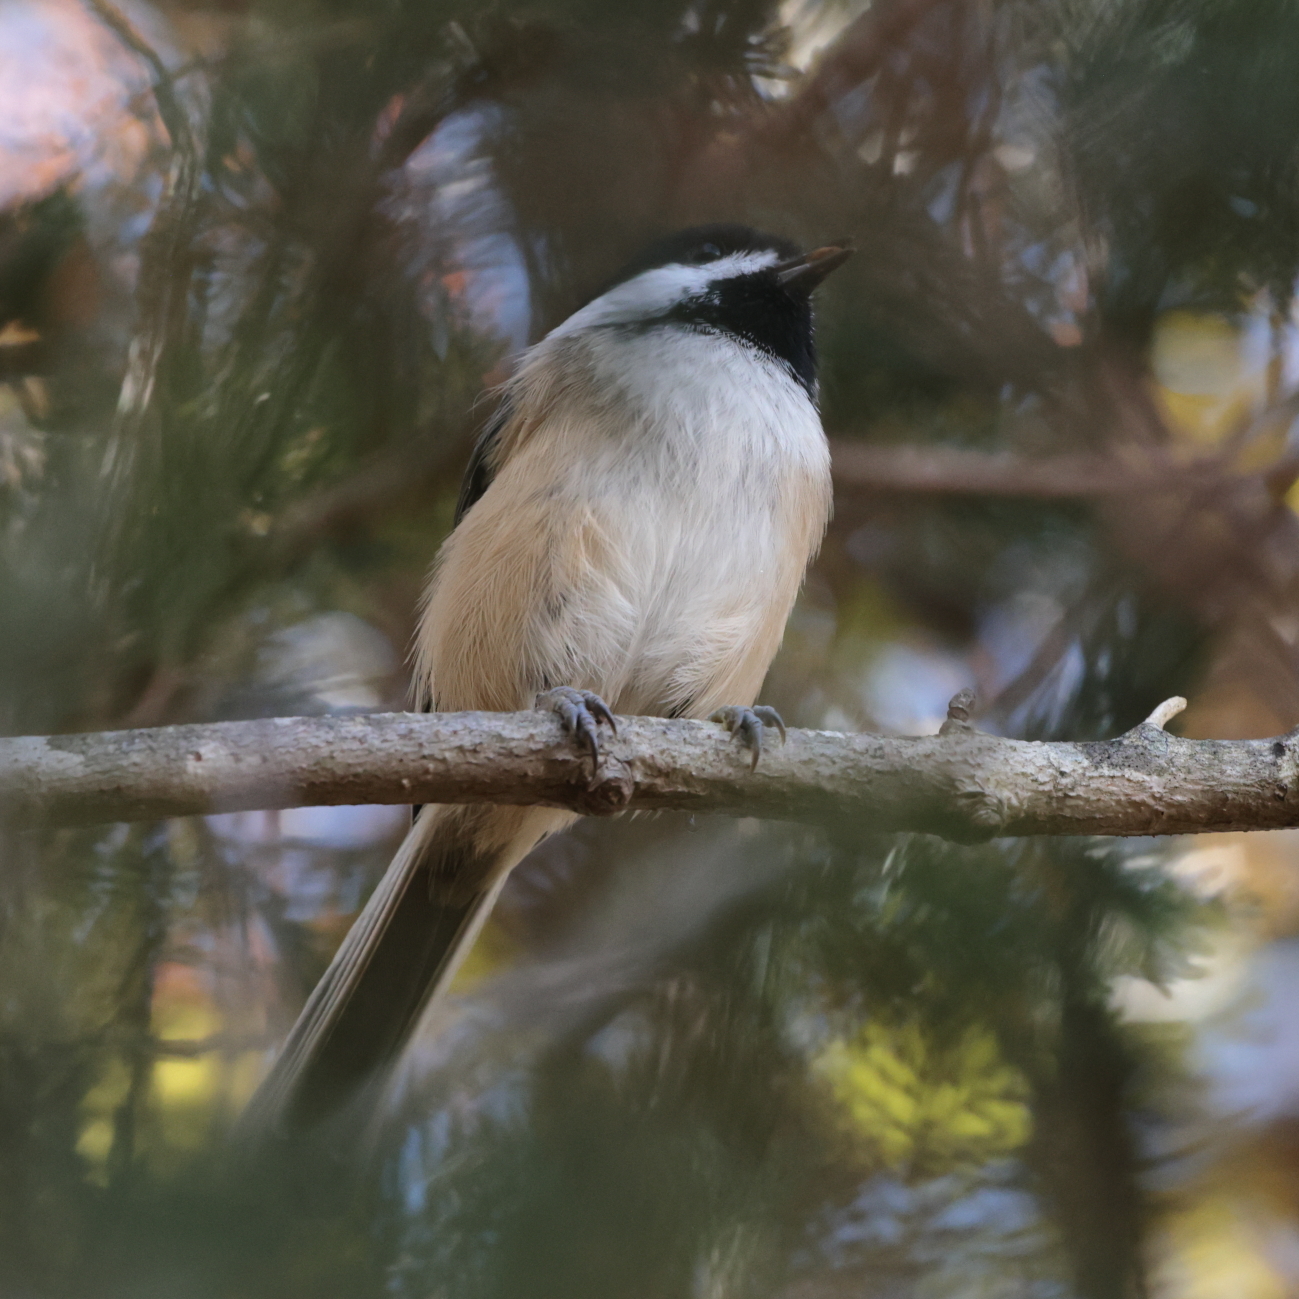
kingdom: Animalia
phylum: Chordata
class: Aves
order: Passeriformes
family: Paridae
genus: Poecile
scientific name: Poecile atricapillus
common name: Black-capped chickadee
